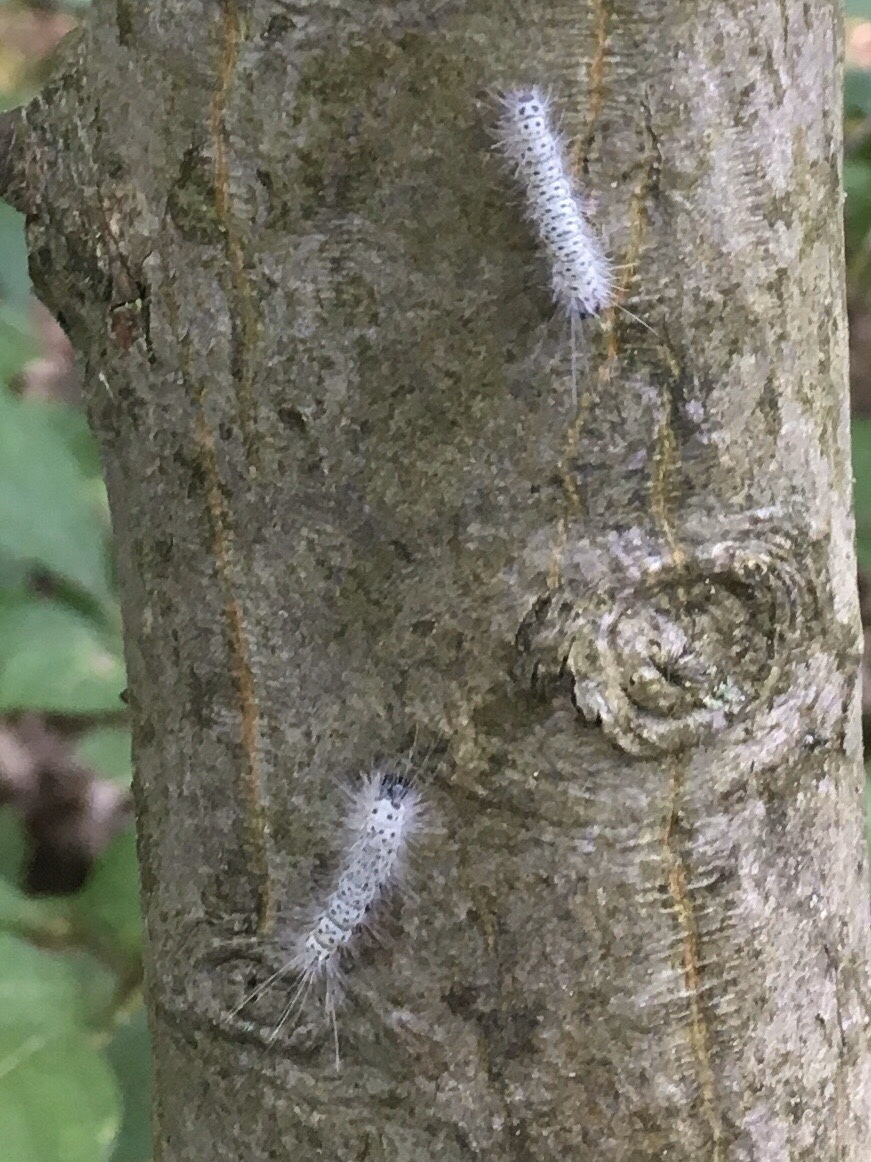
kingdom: Animalia
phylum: Arthropoda
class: Insecta
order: Lepidoptera
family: Erebidae
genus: Lophocampa
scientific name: Lophocampa caryae
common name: Hickory tussock moth
